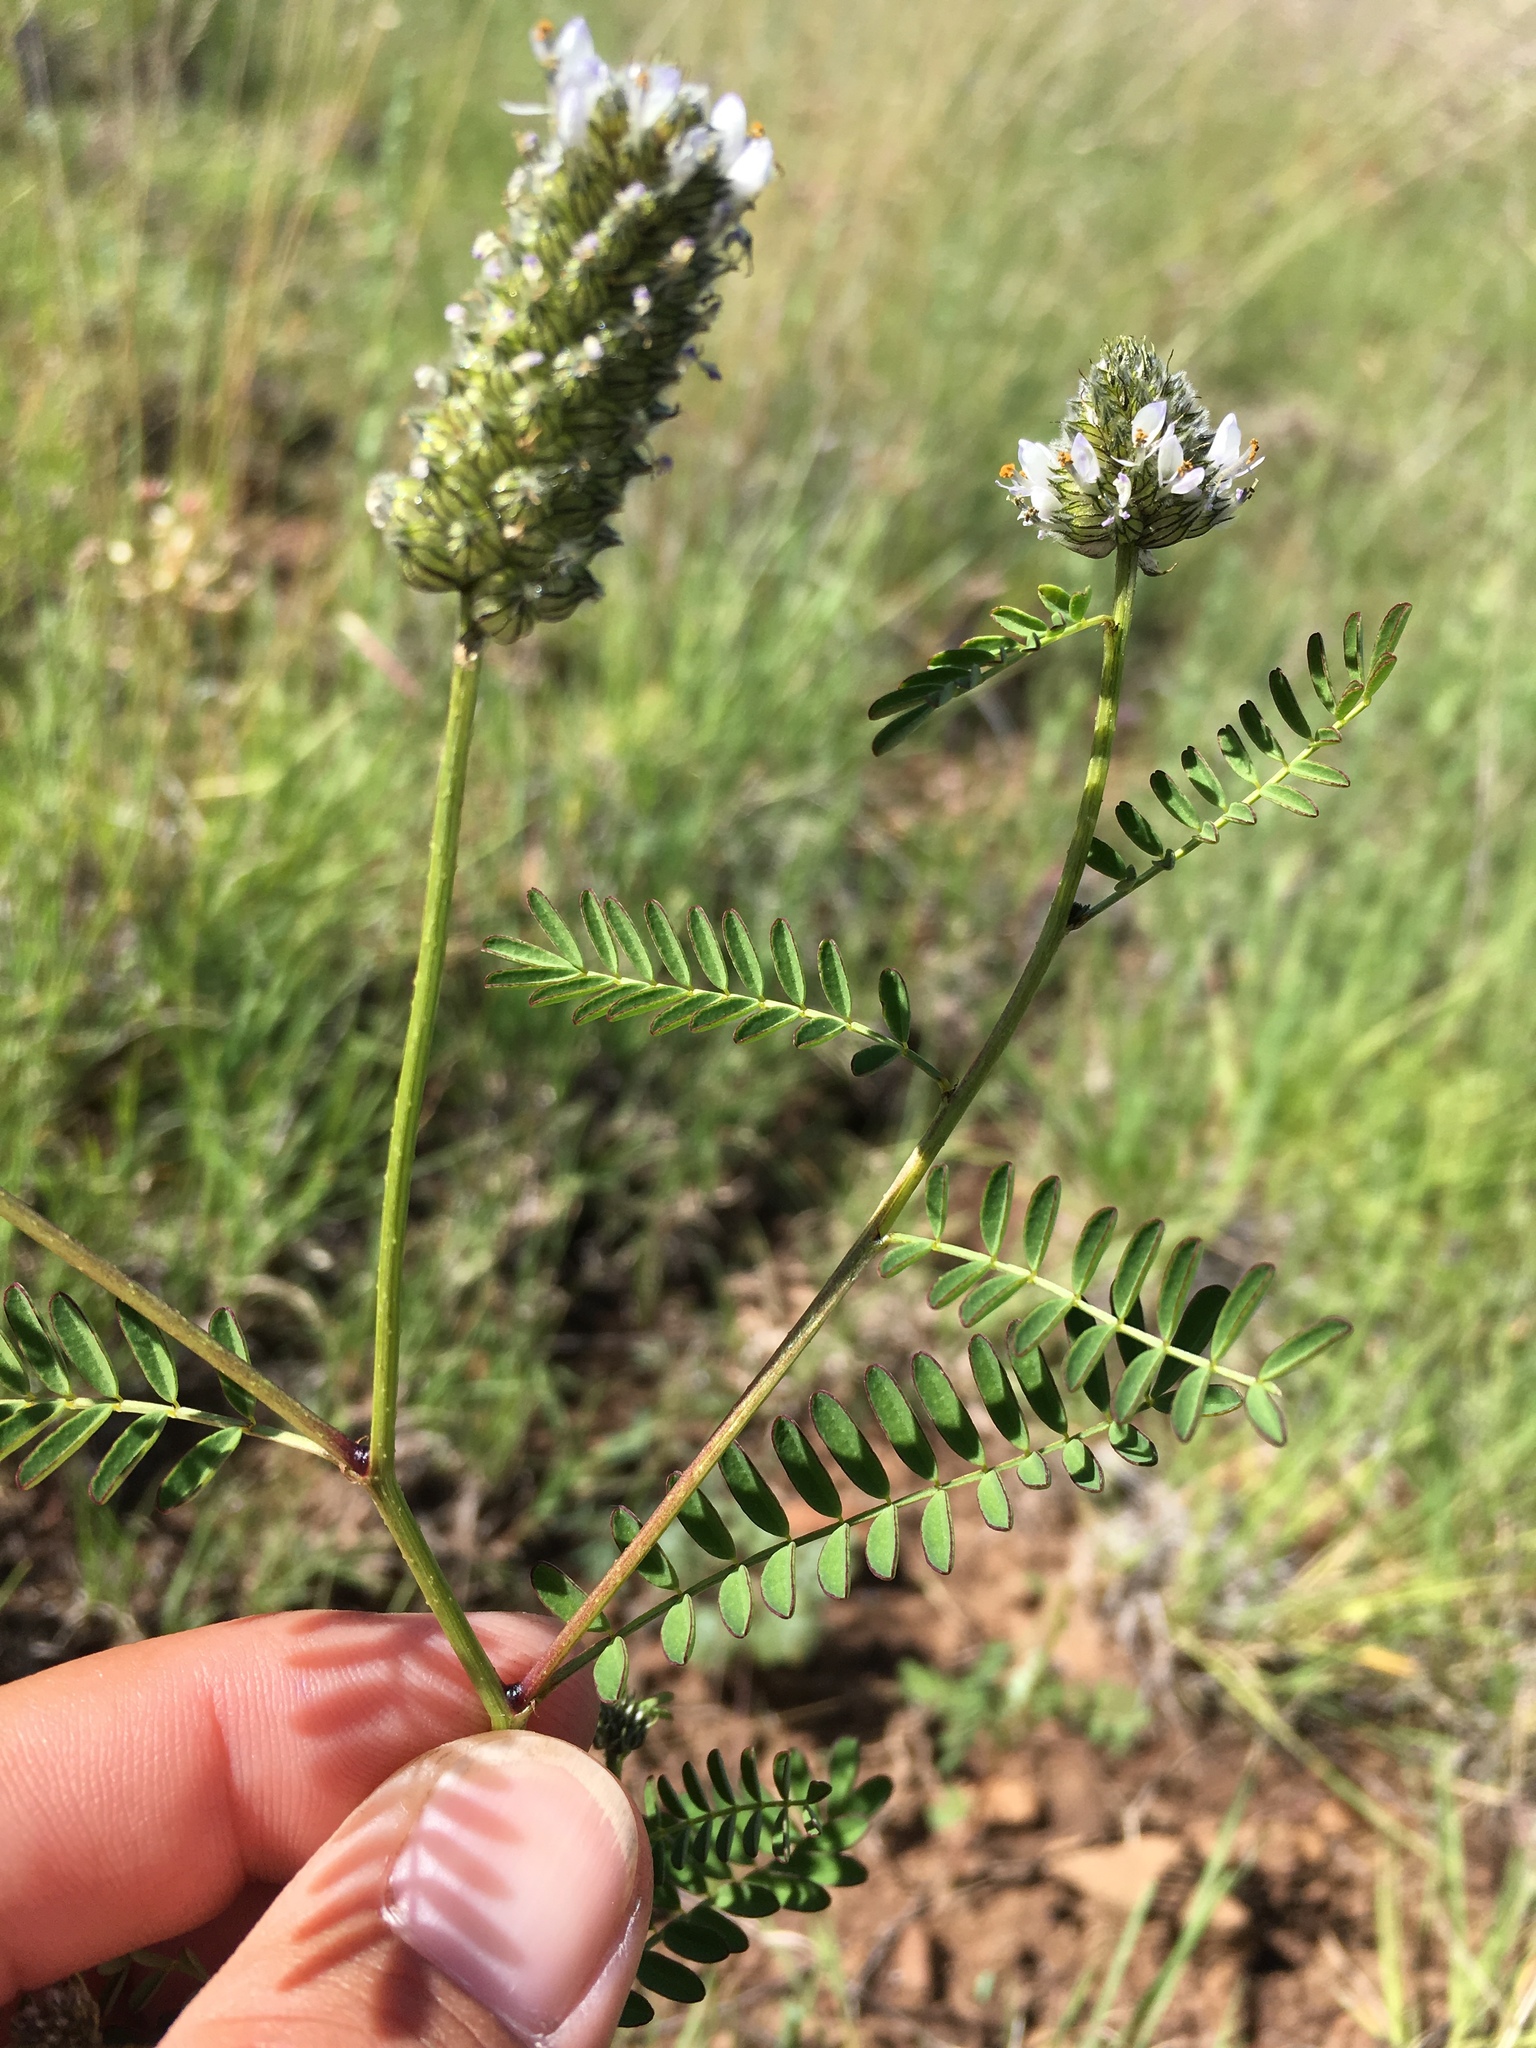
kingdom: Plantae
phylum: Tracheophyta
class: Magnoliopsida
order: Fabales
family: Fabaceae
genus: Dalea
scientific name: Dalea urceolata
